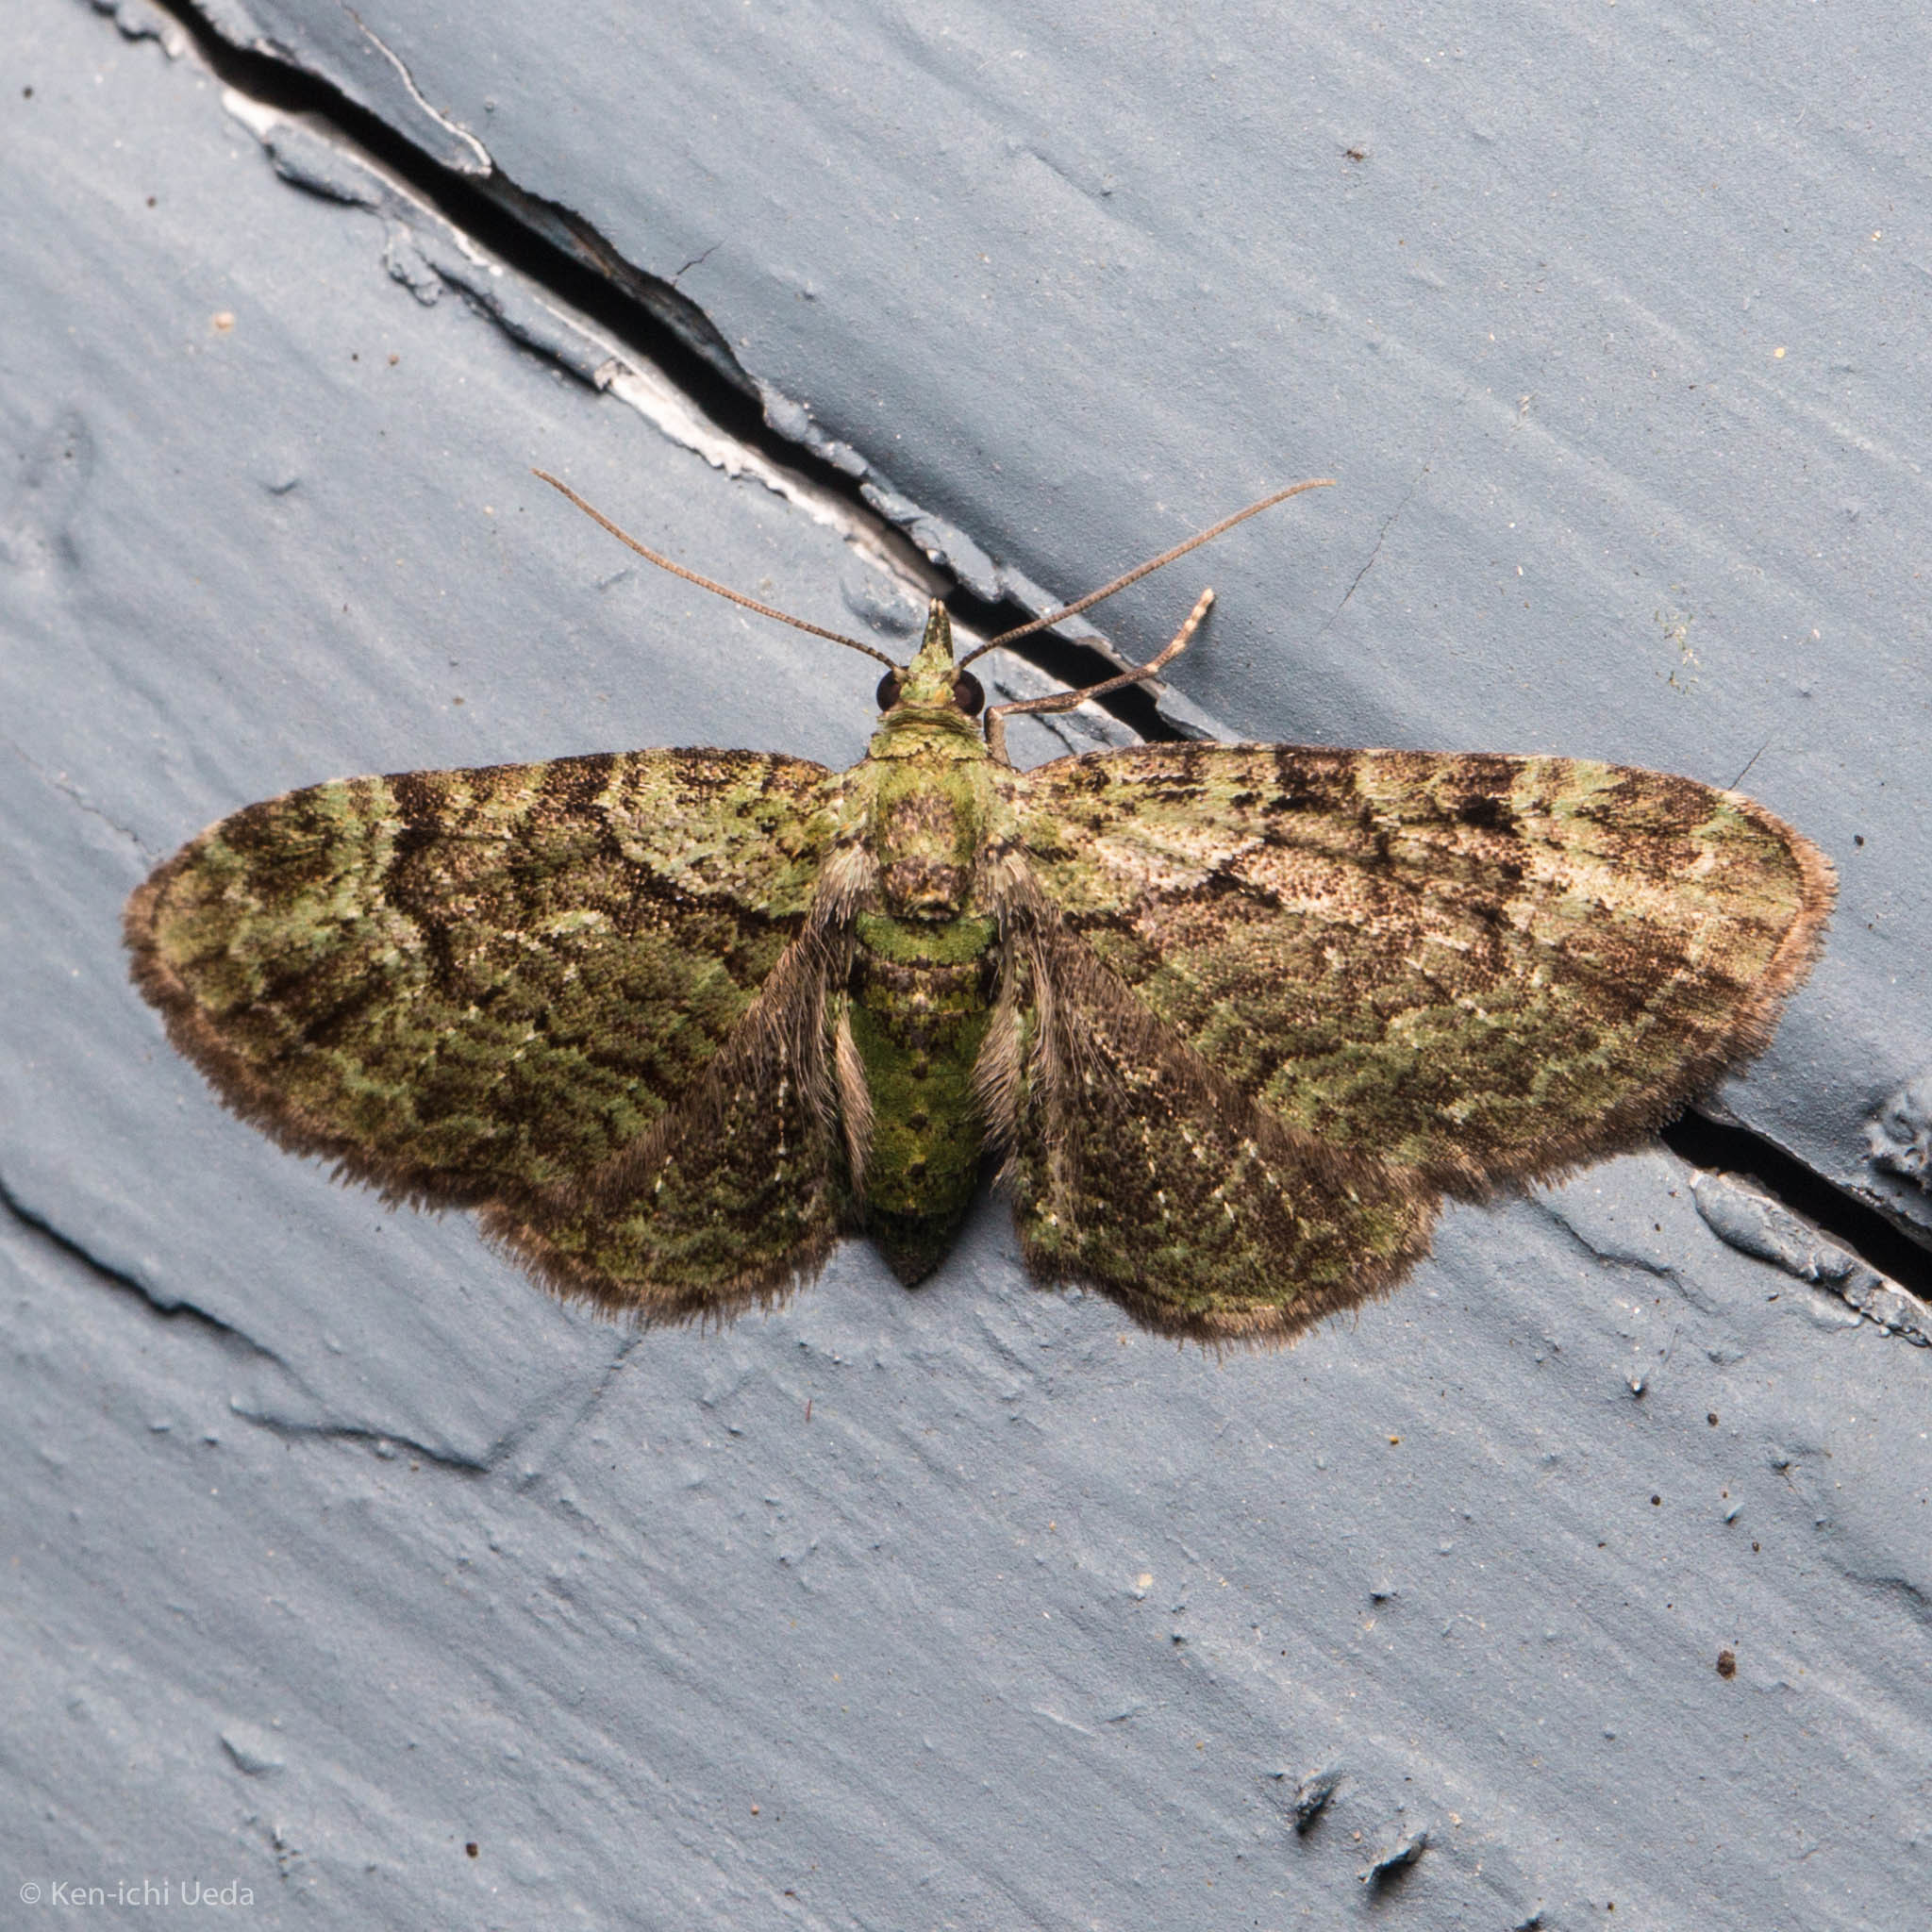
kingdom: Animalia
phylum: Arthropoda
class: Insecta
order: Lepidoptera
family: Geometridae
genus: Pasiphila
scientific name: Pasiphila rectangulata
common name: Green pug
